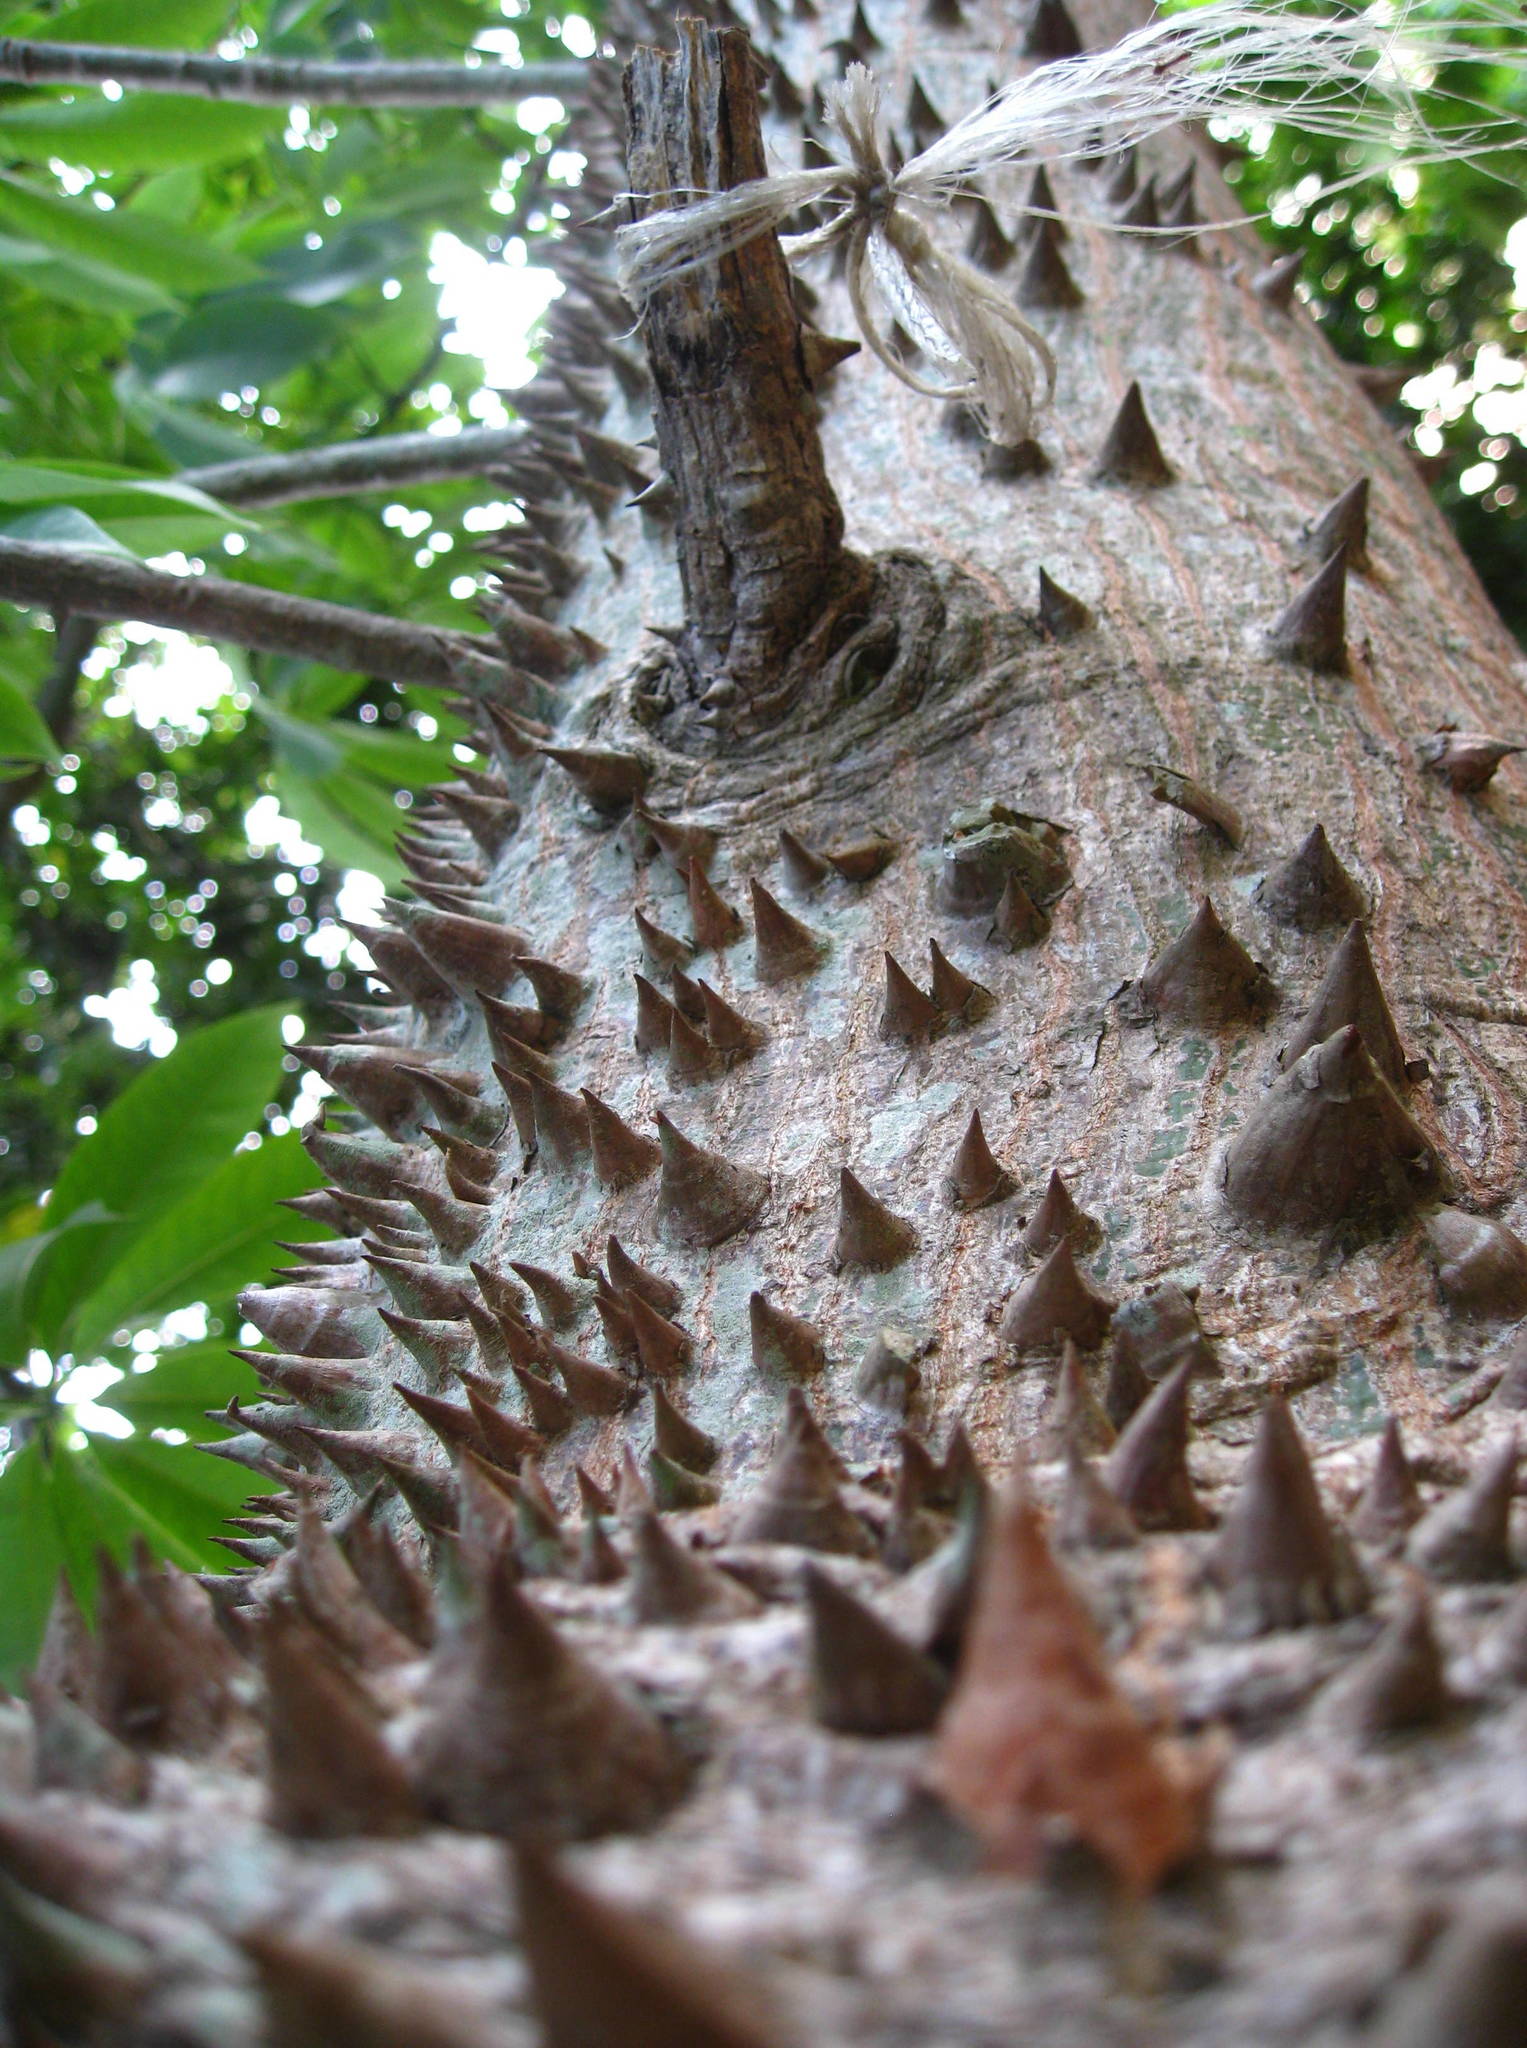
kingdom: Plantae
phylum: Tracheophyta
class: Magnoliopsida
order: Malvales
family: Malvaceae
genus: Ceiba
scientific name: Ceiba pentandra
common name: Kapok
